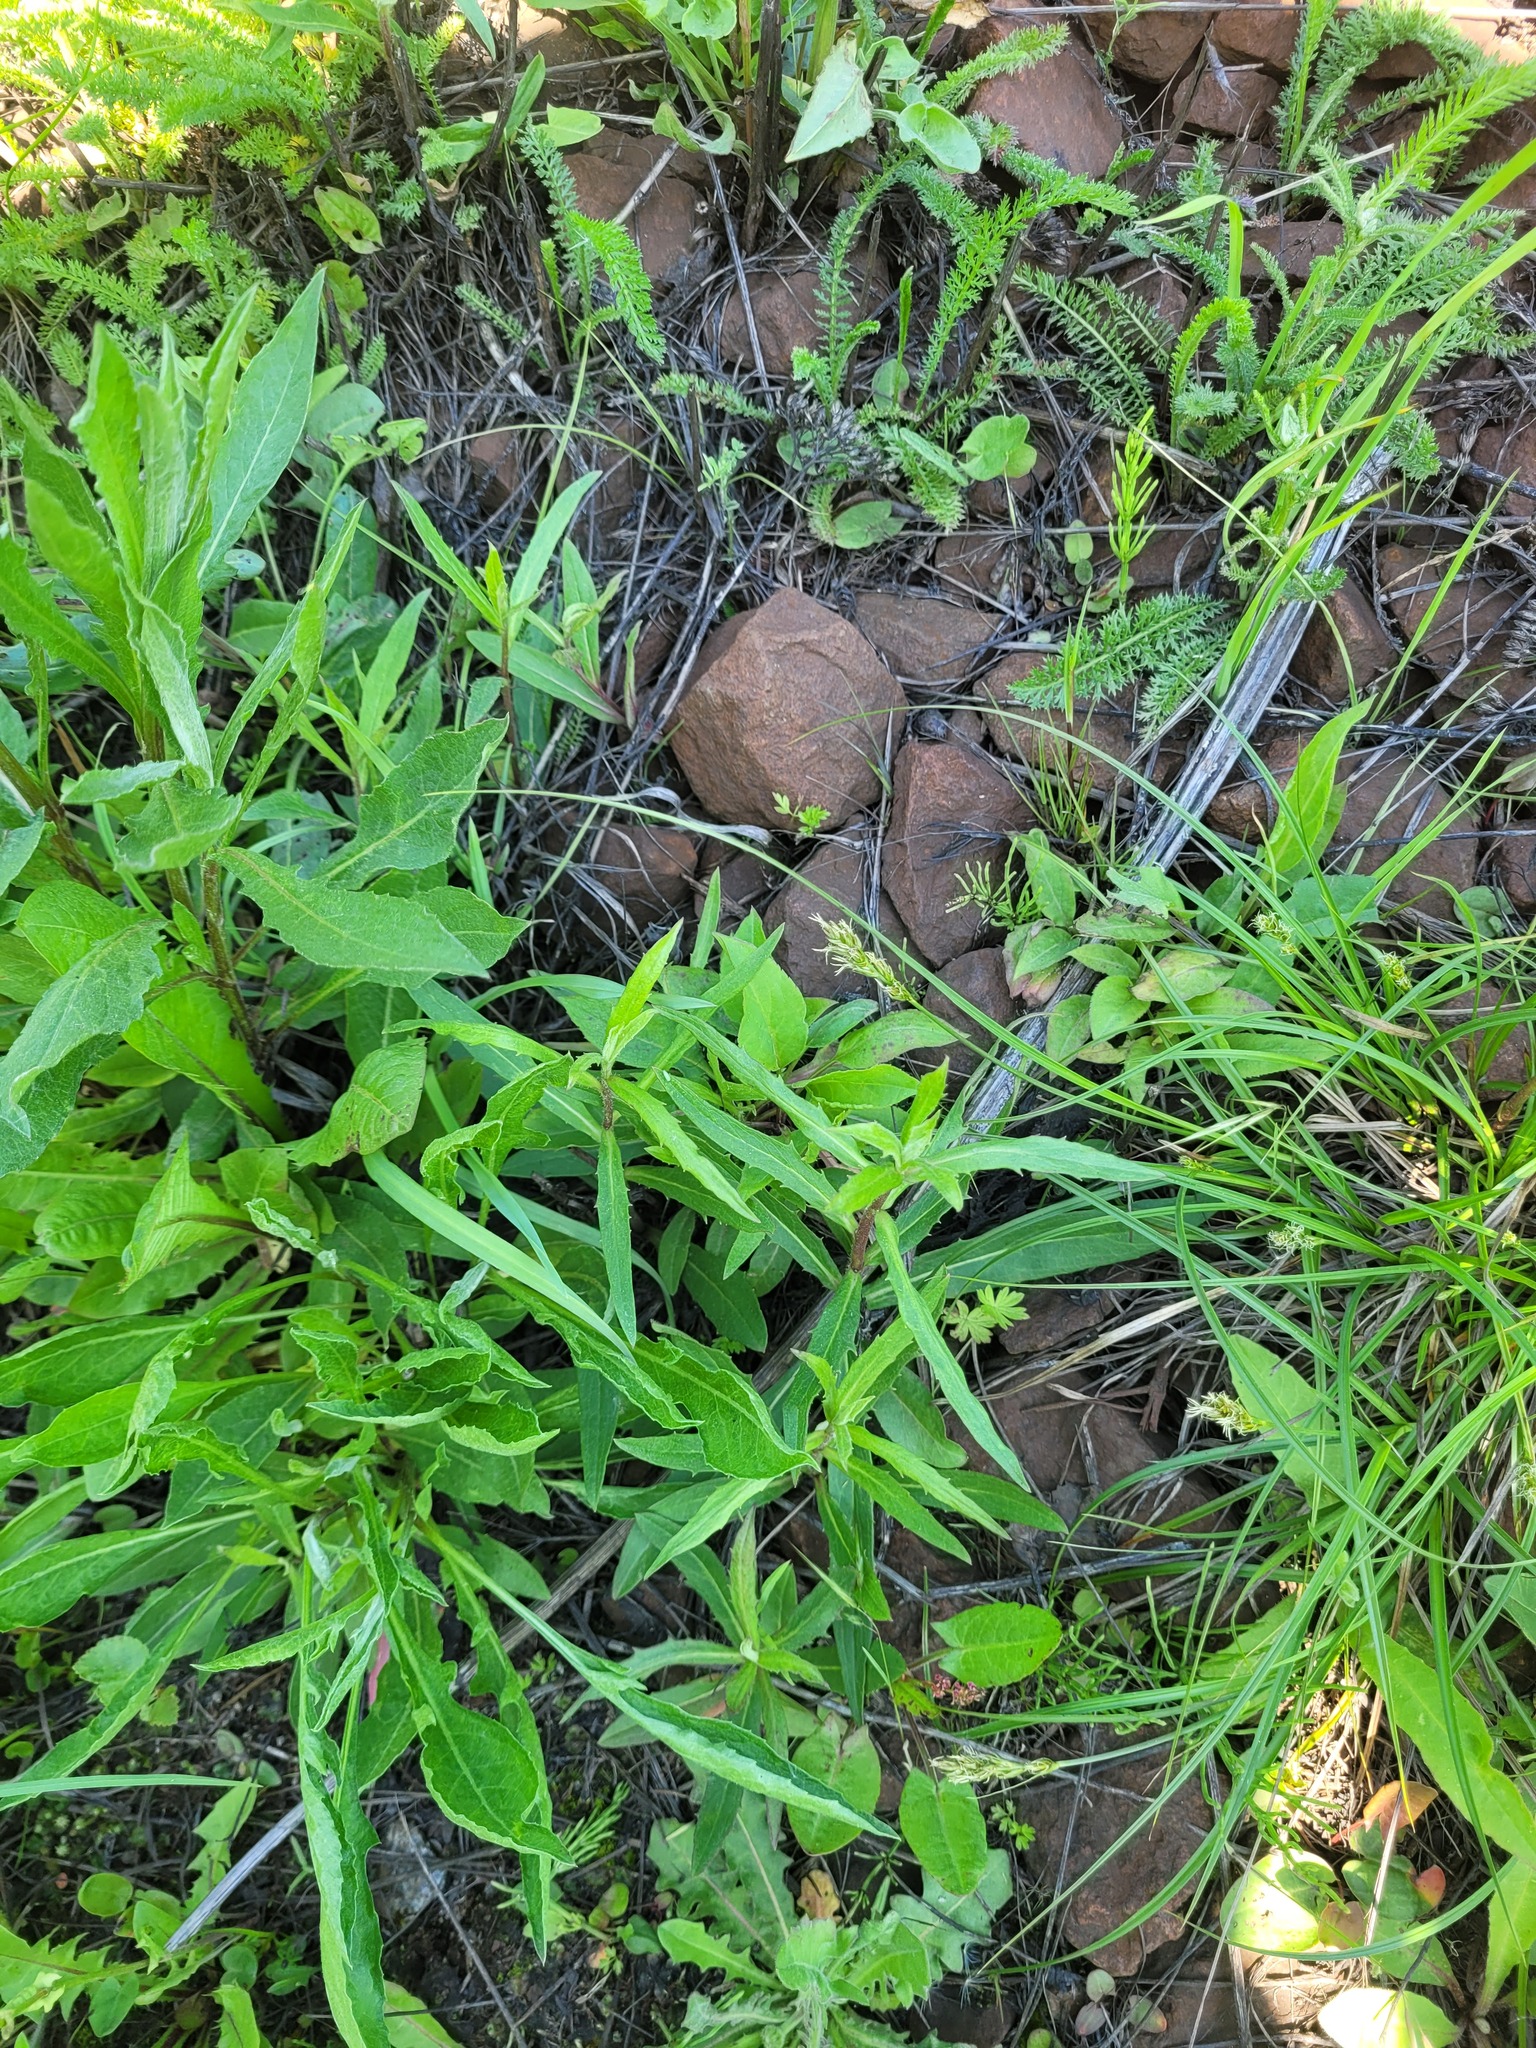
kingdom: Plantae
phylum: Tracheophyta
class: Magnoliopsida
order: Asterales
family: Asteraceae
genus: Hieracium
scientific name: Hieracium umbellatum
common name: Northern hawkweed
